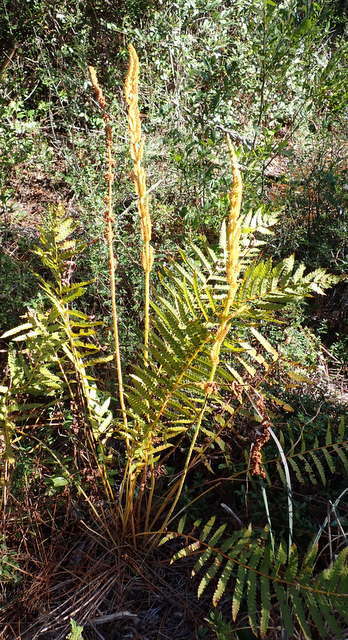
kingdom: Plantae
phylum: Tracheophyta
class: Polypodiopsida
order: Osmundales
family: Osmundaceae
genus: Osmundastrum
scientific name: Osmundastrum cinnamomeum
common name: Cinnamon fern
